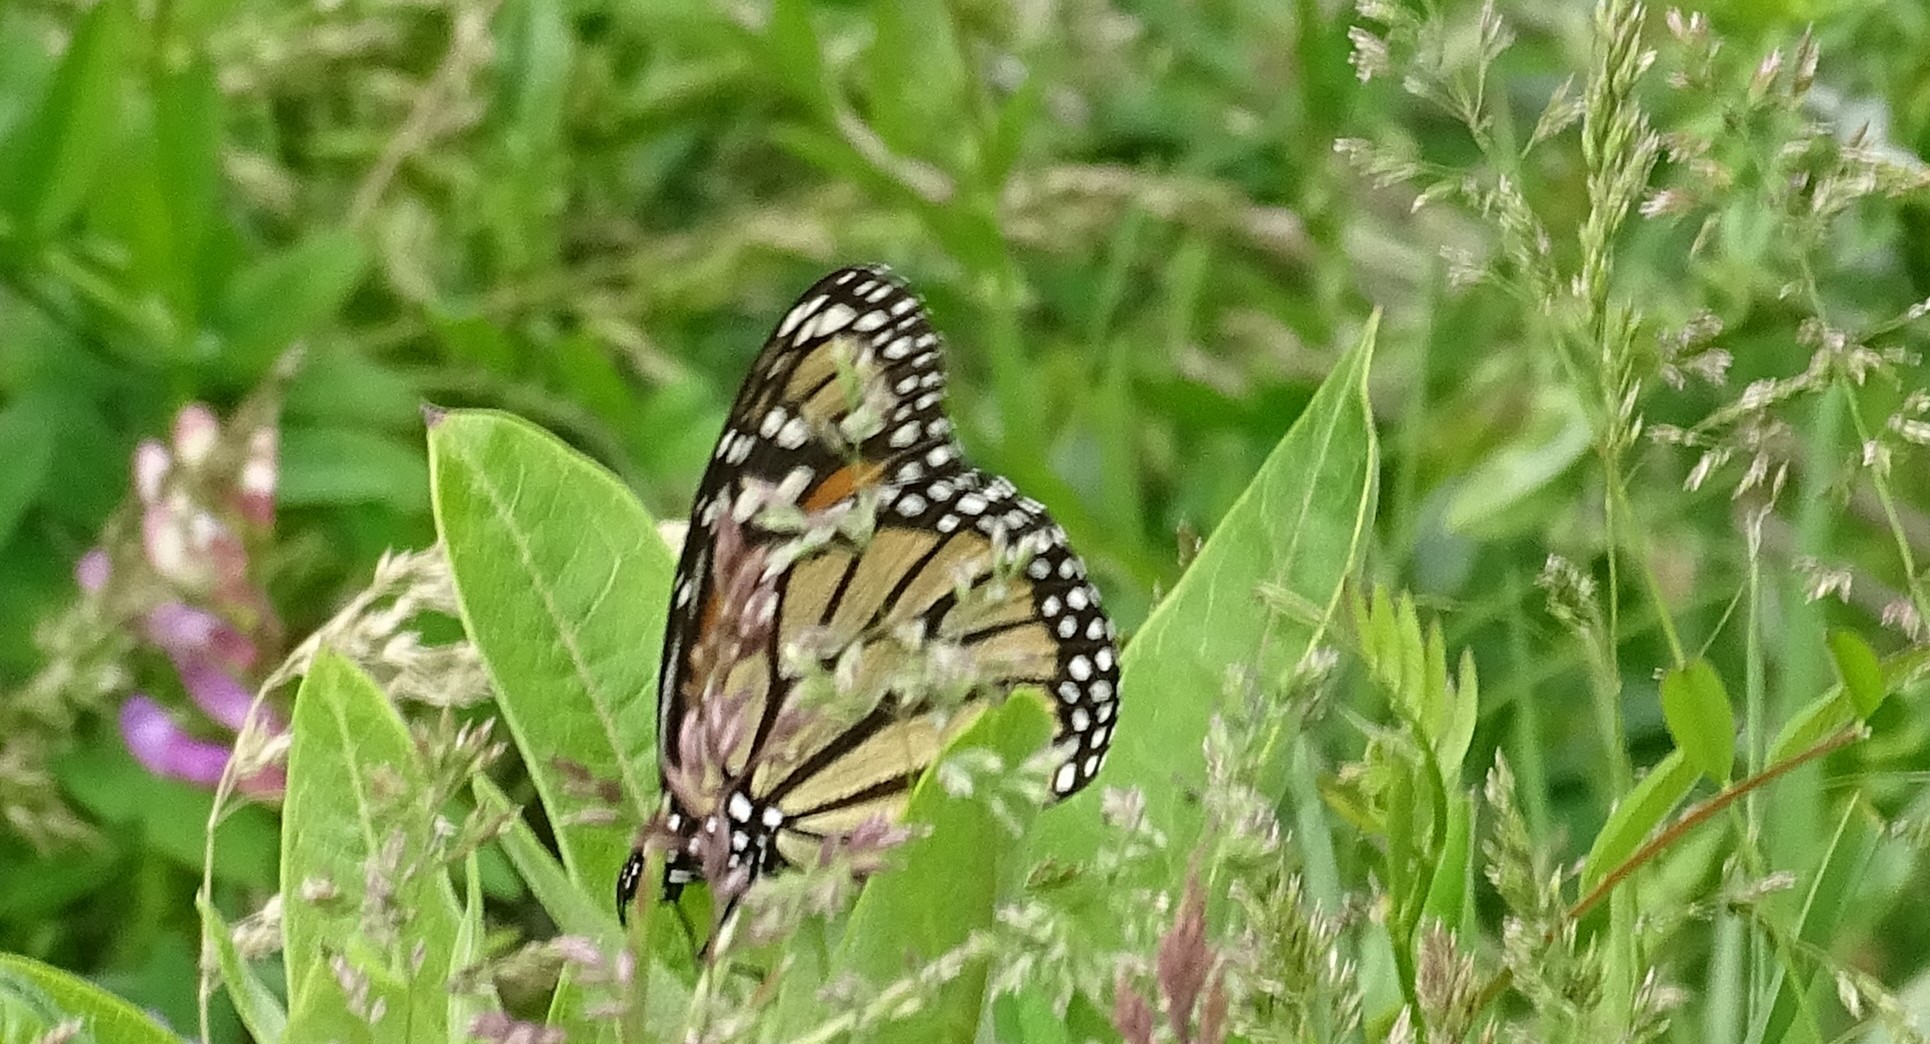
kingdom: Animalia
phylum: Arthropoda
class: Insecta
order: Lepidoptera
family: Nymphalidae
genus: Danaus
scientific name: Danaus plexippus
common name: Monarch
